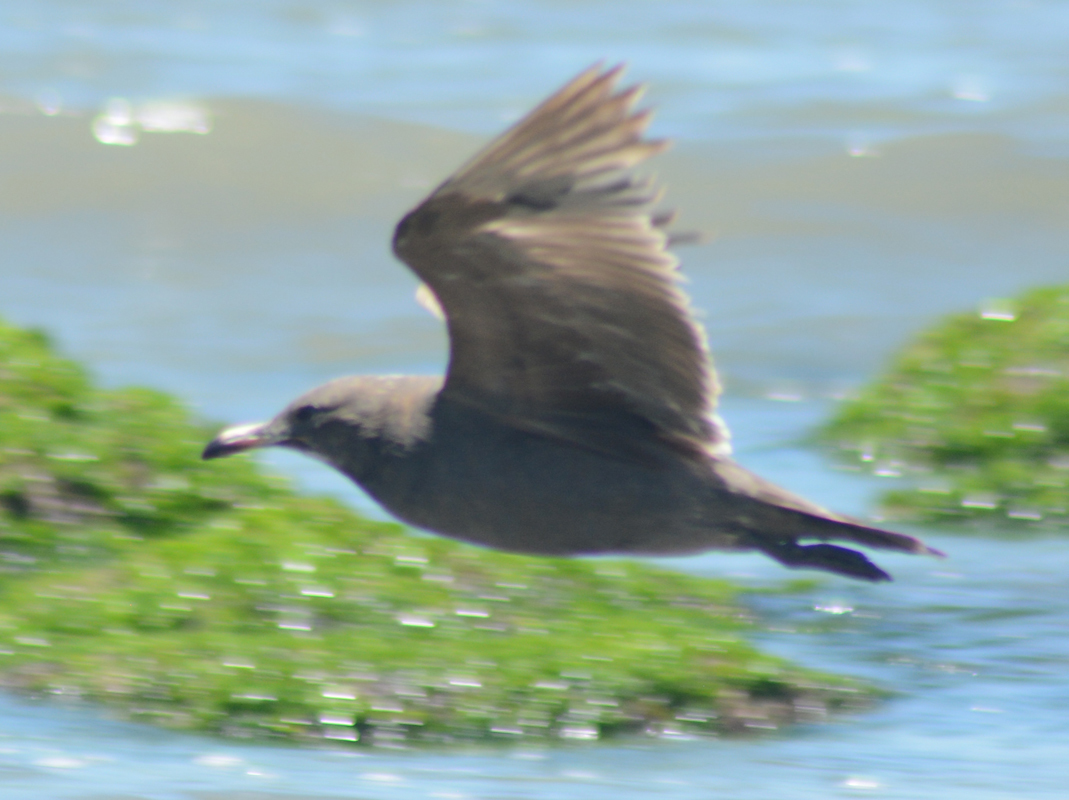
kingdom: Animalia
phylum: Chordata
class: Aves
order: Charadriiformes
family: Laridae
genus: Larus
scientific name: Larus heermanni
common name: Heermann's gull
